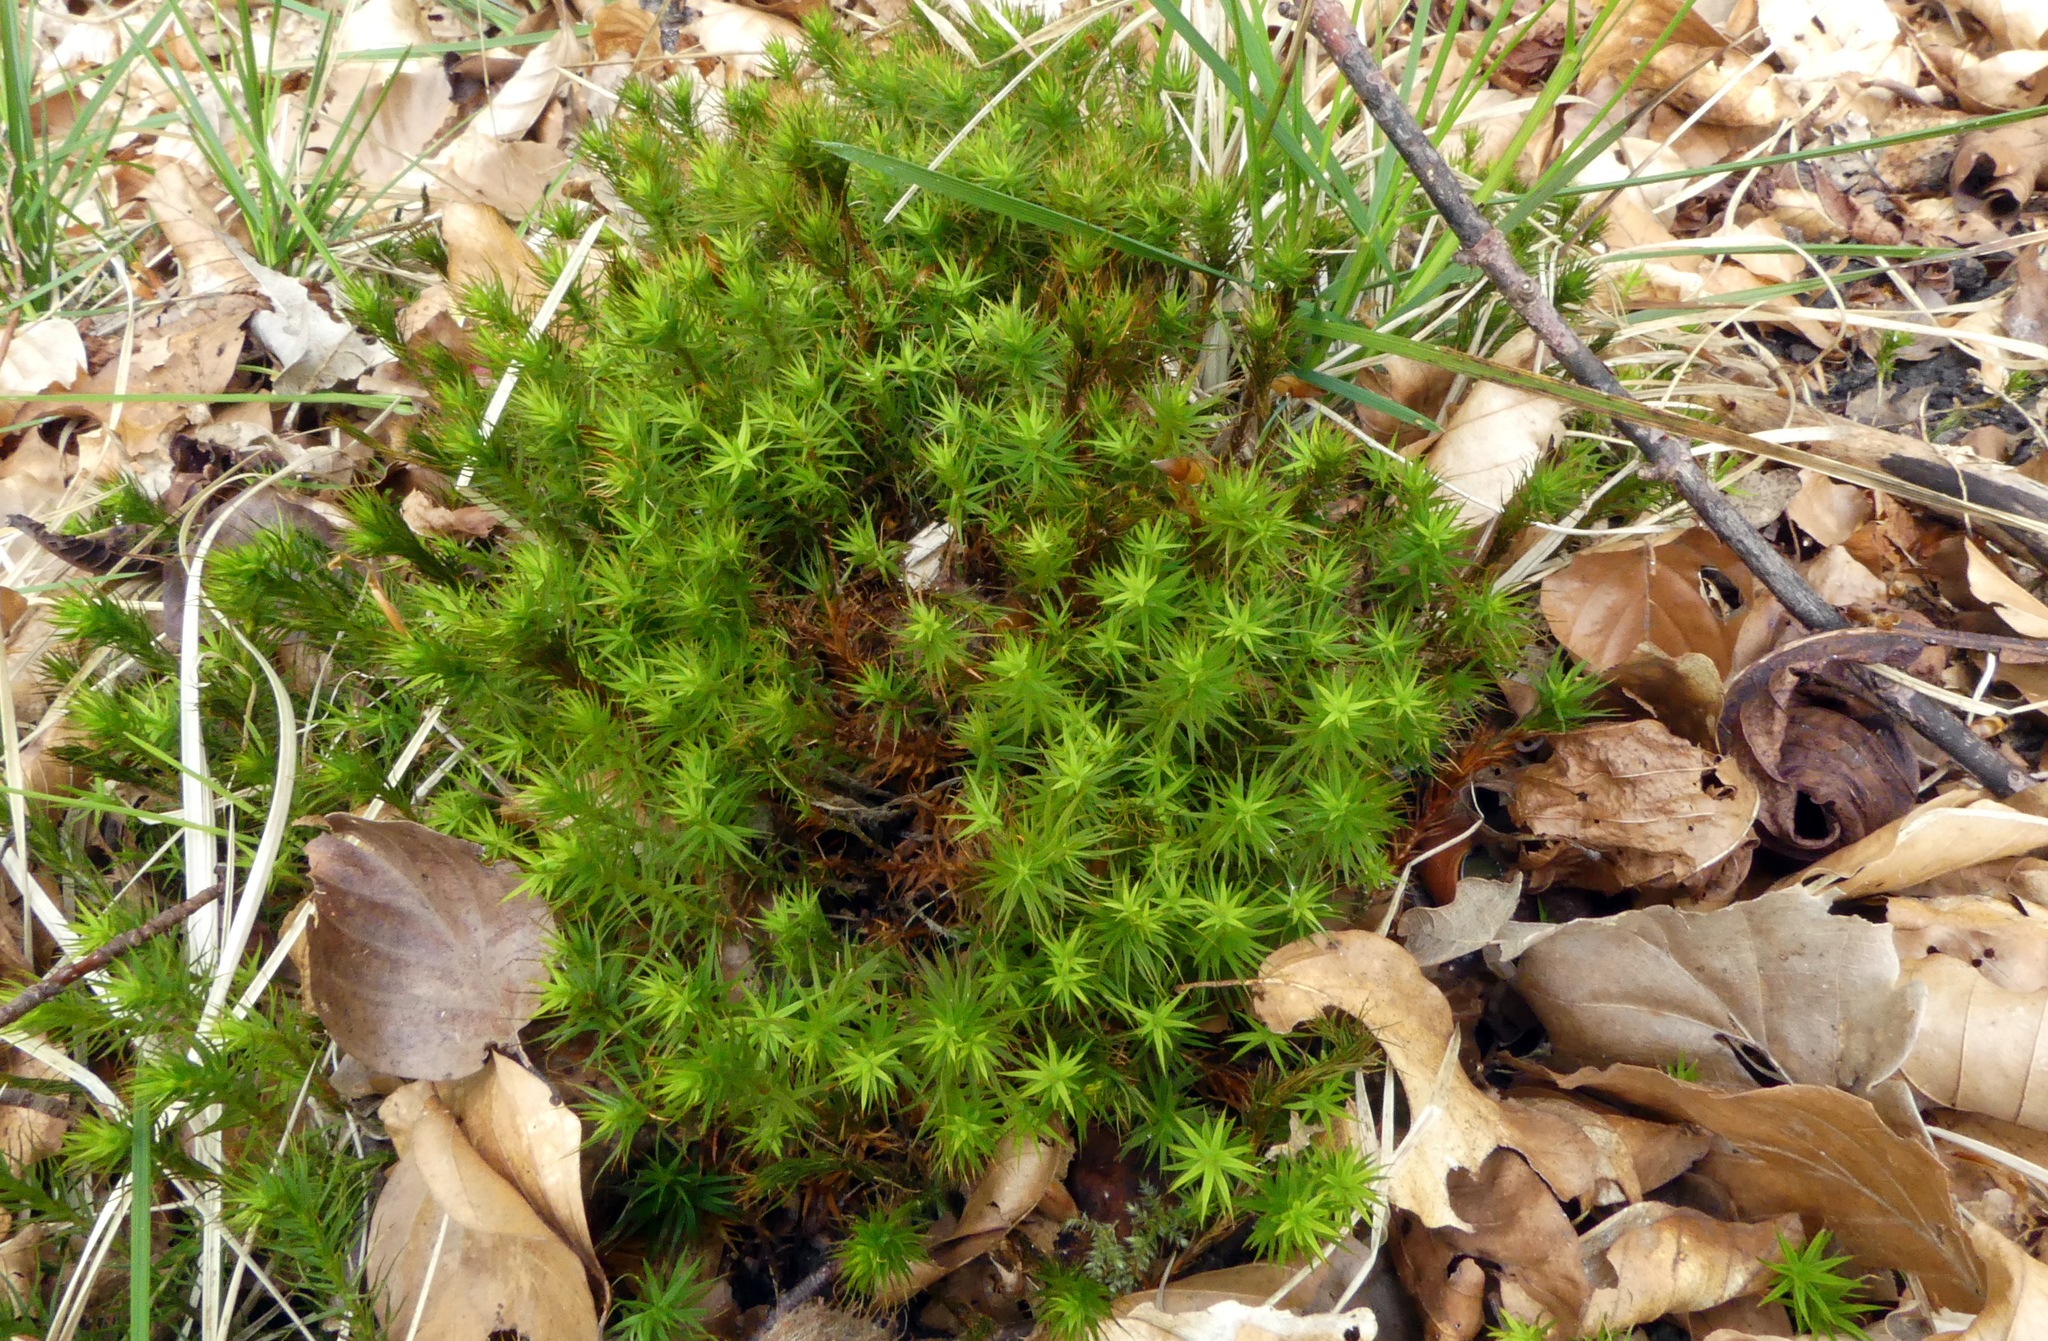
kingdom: Plantae
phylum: Bryophyta
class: Polytrichopsida
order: Polytrichales
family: Polytrichaceae
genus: Polytrichum
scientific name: Polytrichum commune
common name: Common haircap
